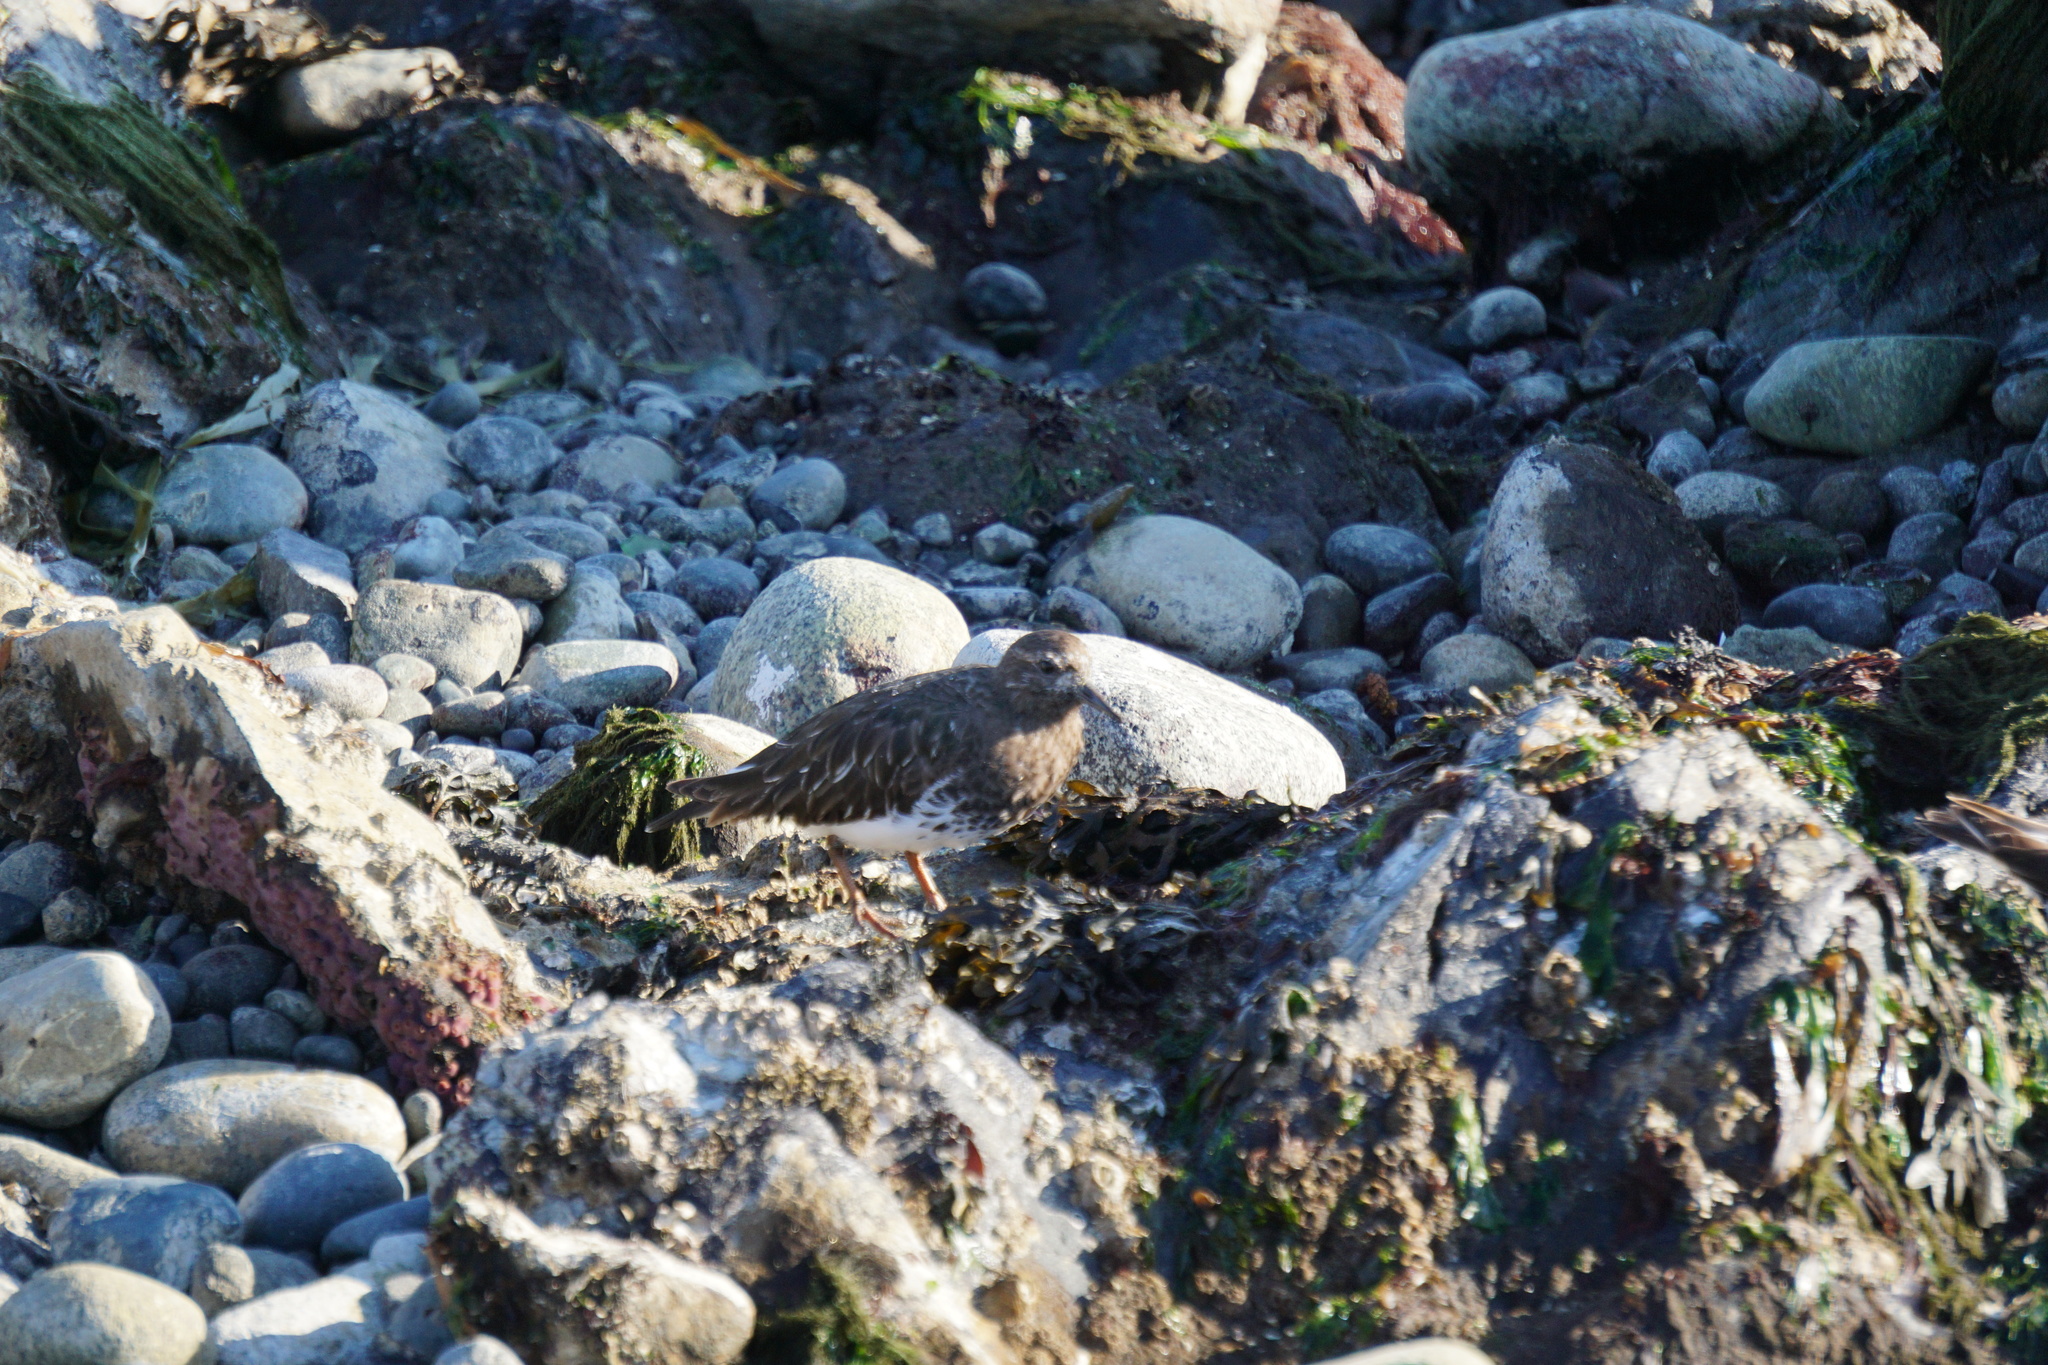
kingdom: Animalia
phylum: Chordata
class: Aves
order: Charadriiformes
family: Scolopacidae
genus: Arenaria
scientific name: Arenaria melanocephala
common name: Black turnstone
